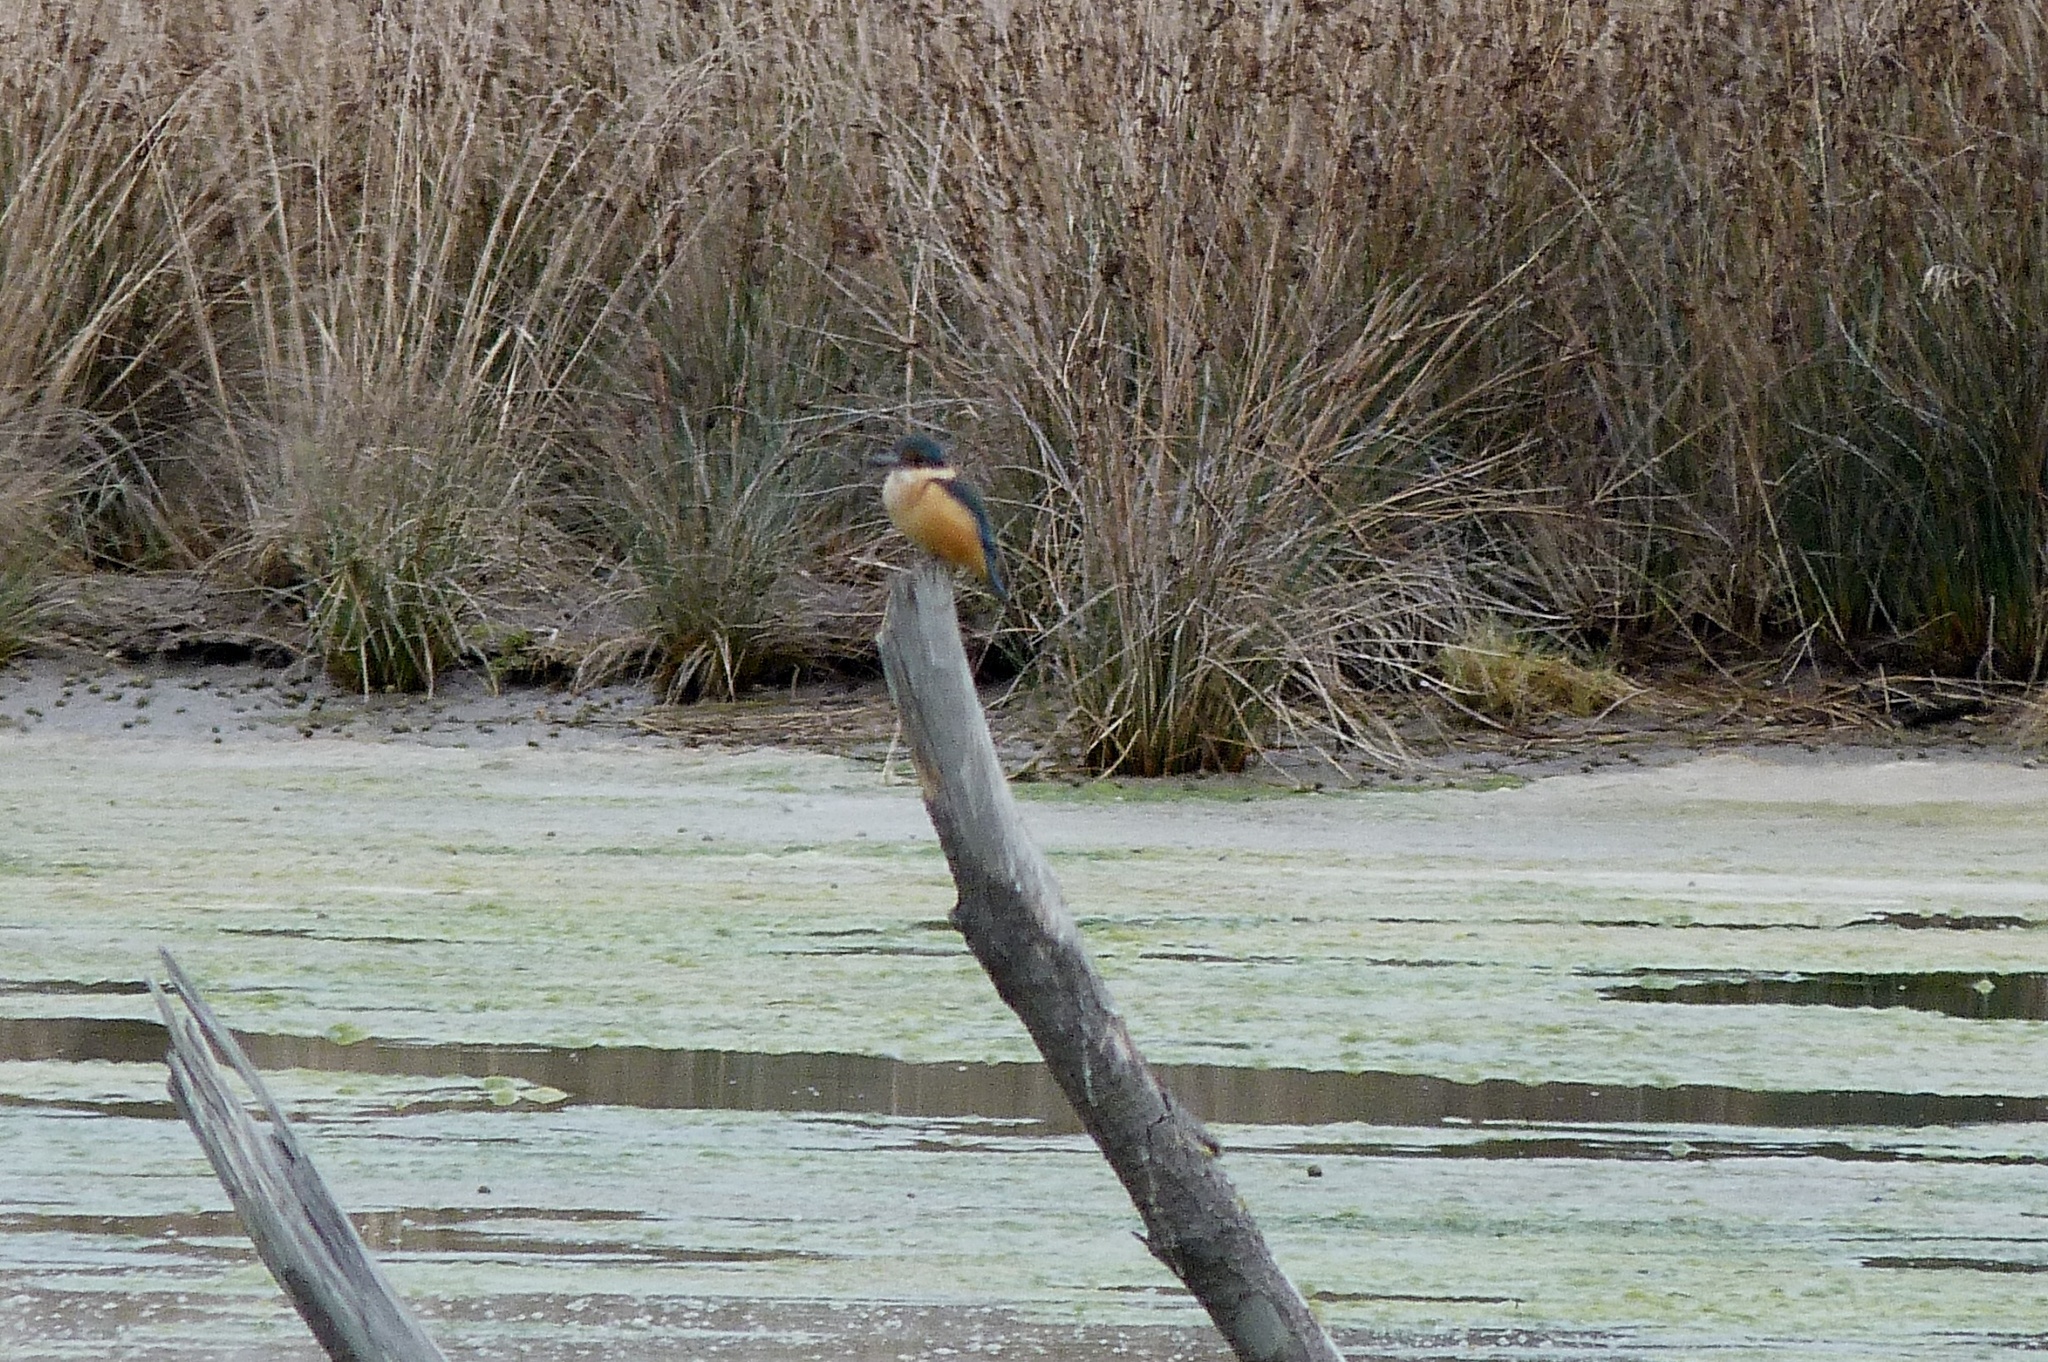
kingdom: Animalia
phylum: Chordata
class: Aves
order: Coraciiformes
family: Alcedinidae
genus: Todiramphus
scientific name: Todiramphus sanctus
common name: Sacred kingfisher
